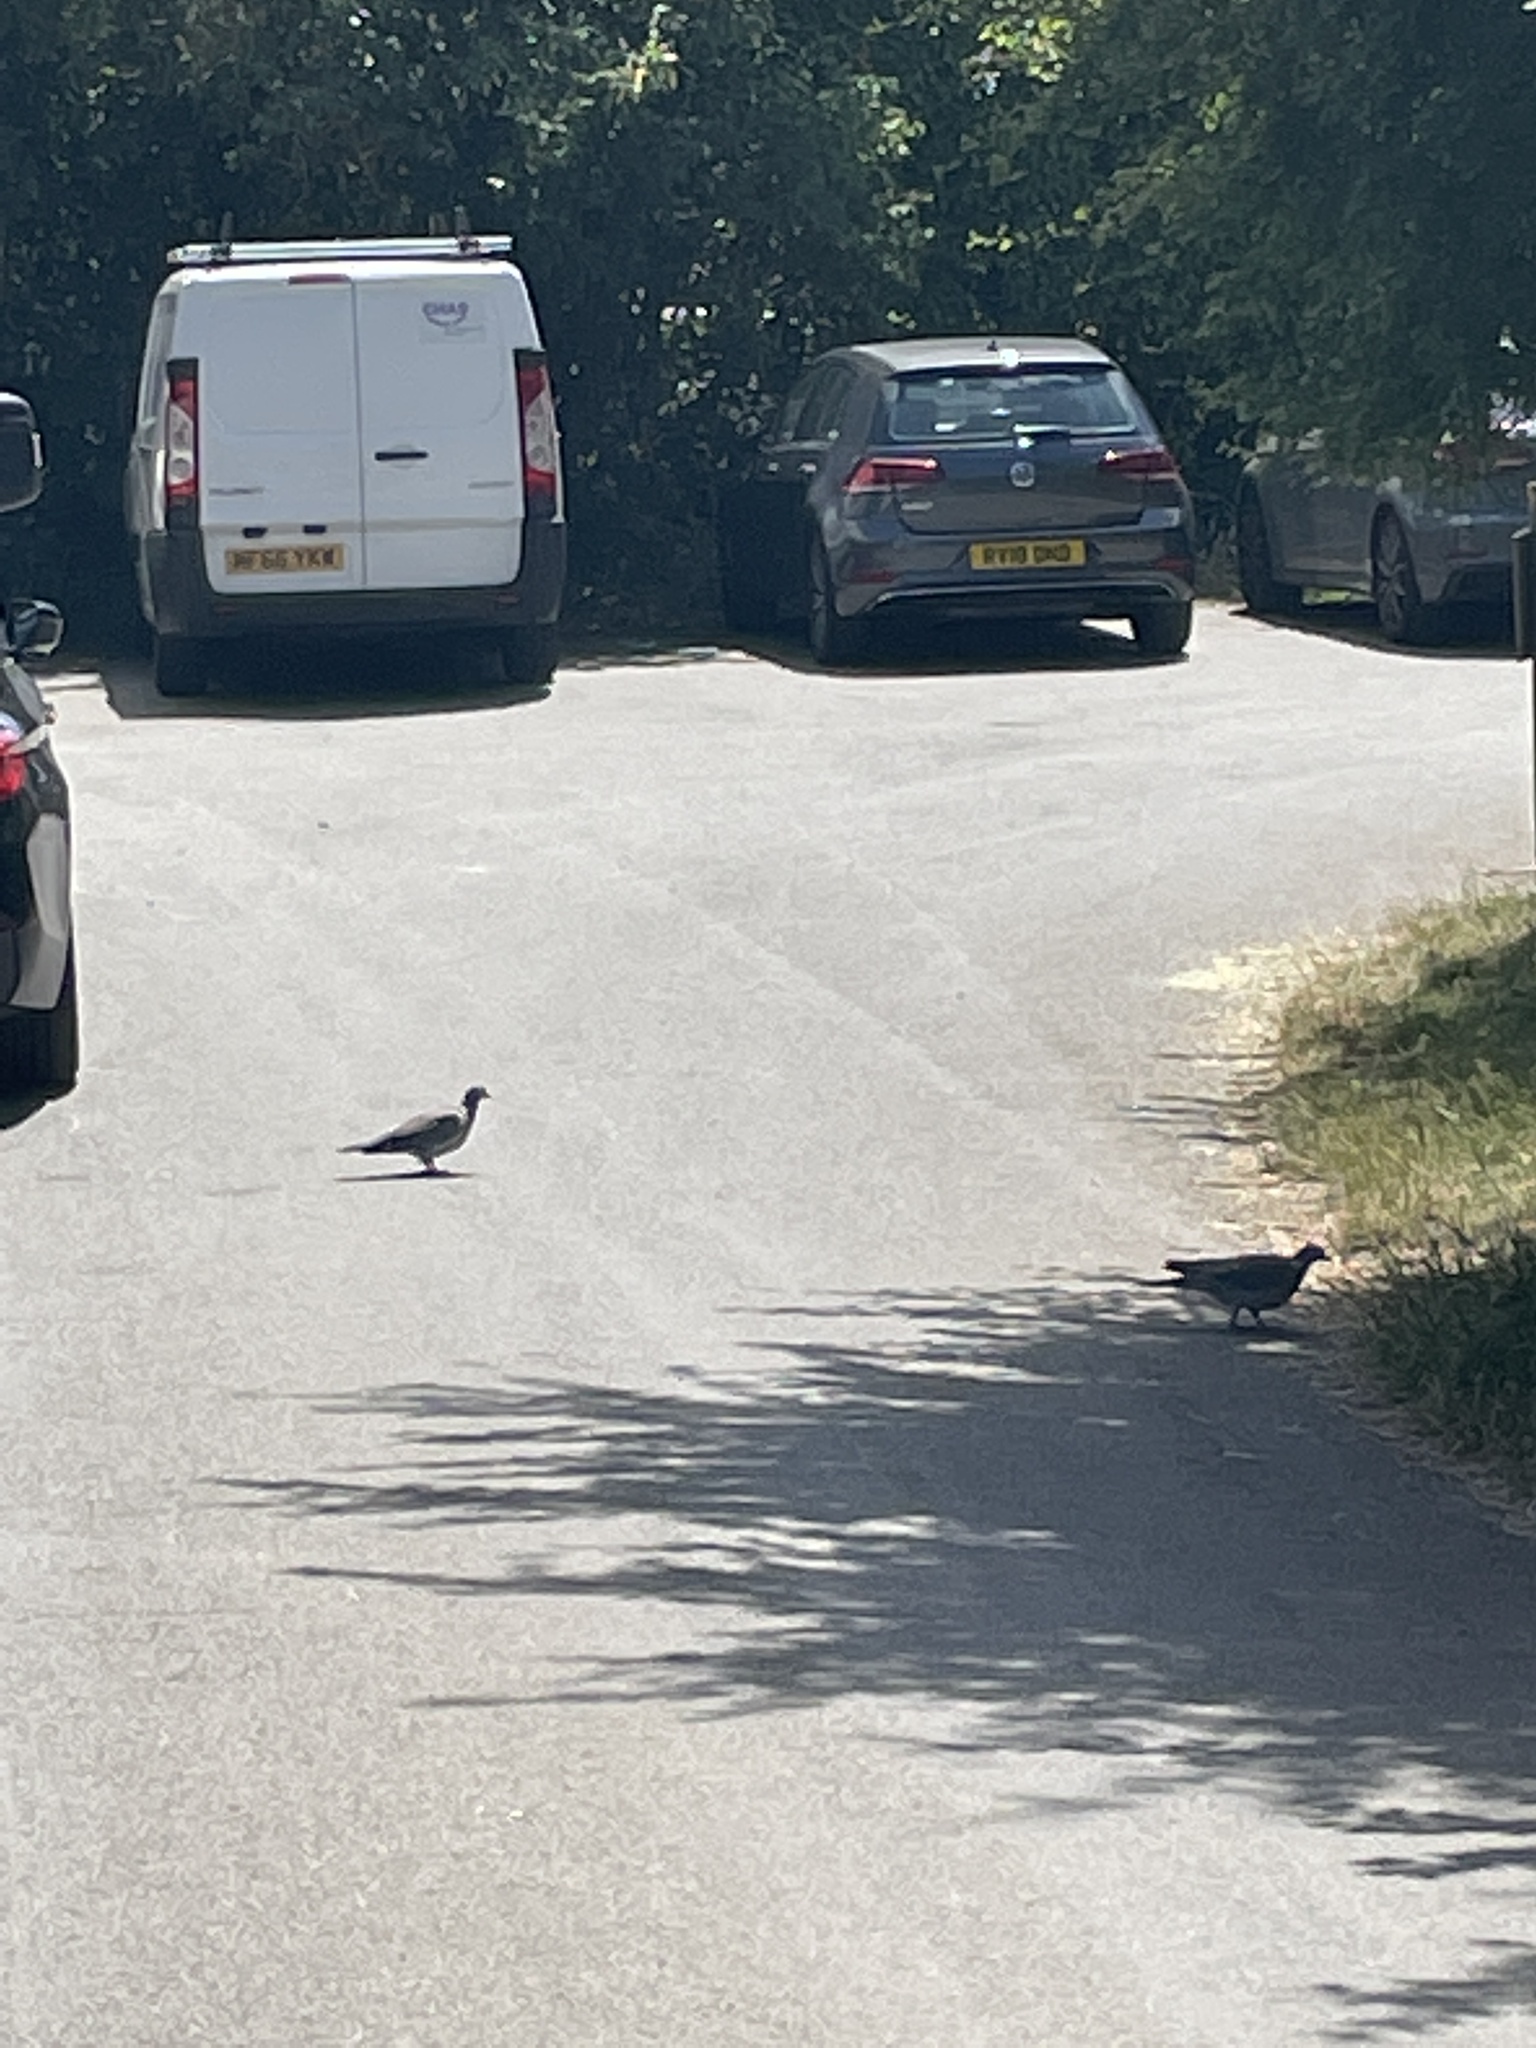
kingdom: Animalia
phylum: Chordata
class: Aves
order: Columbiformes
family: Columbidae
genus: Columba
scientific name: Columba palumbus
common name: Common wood pigeon
